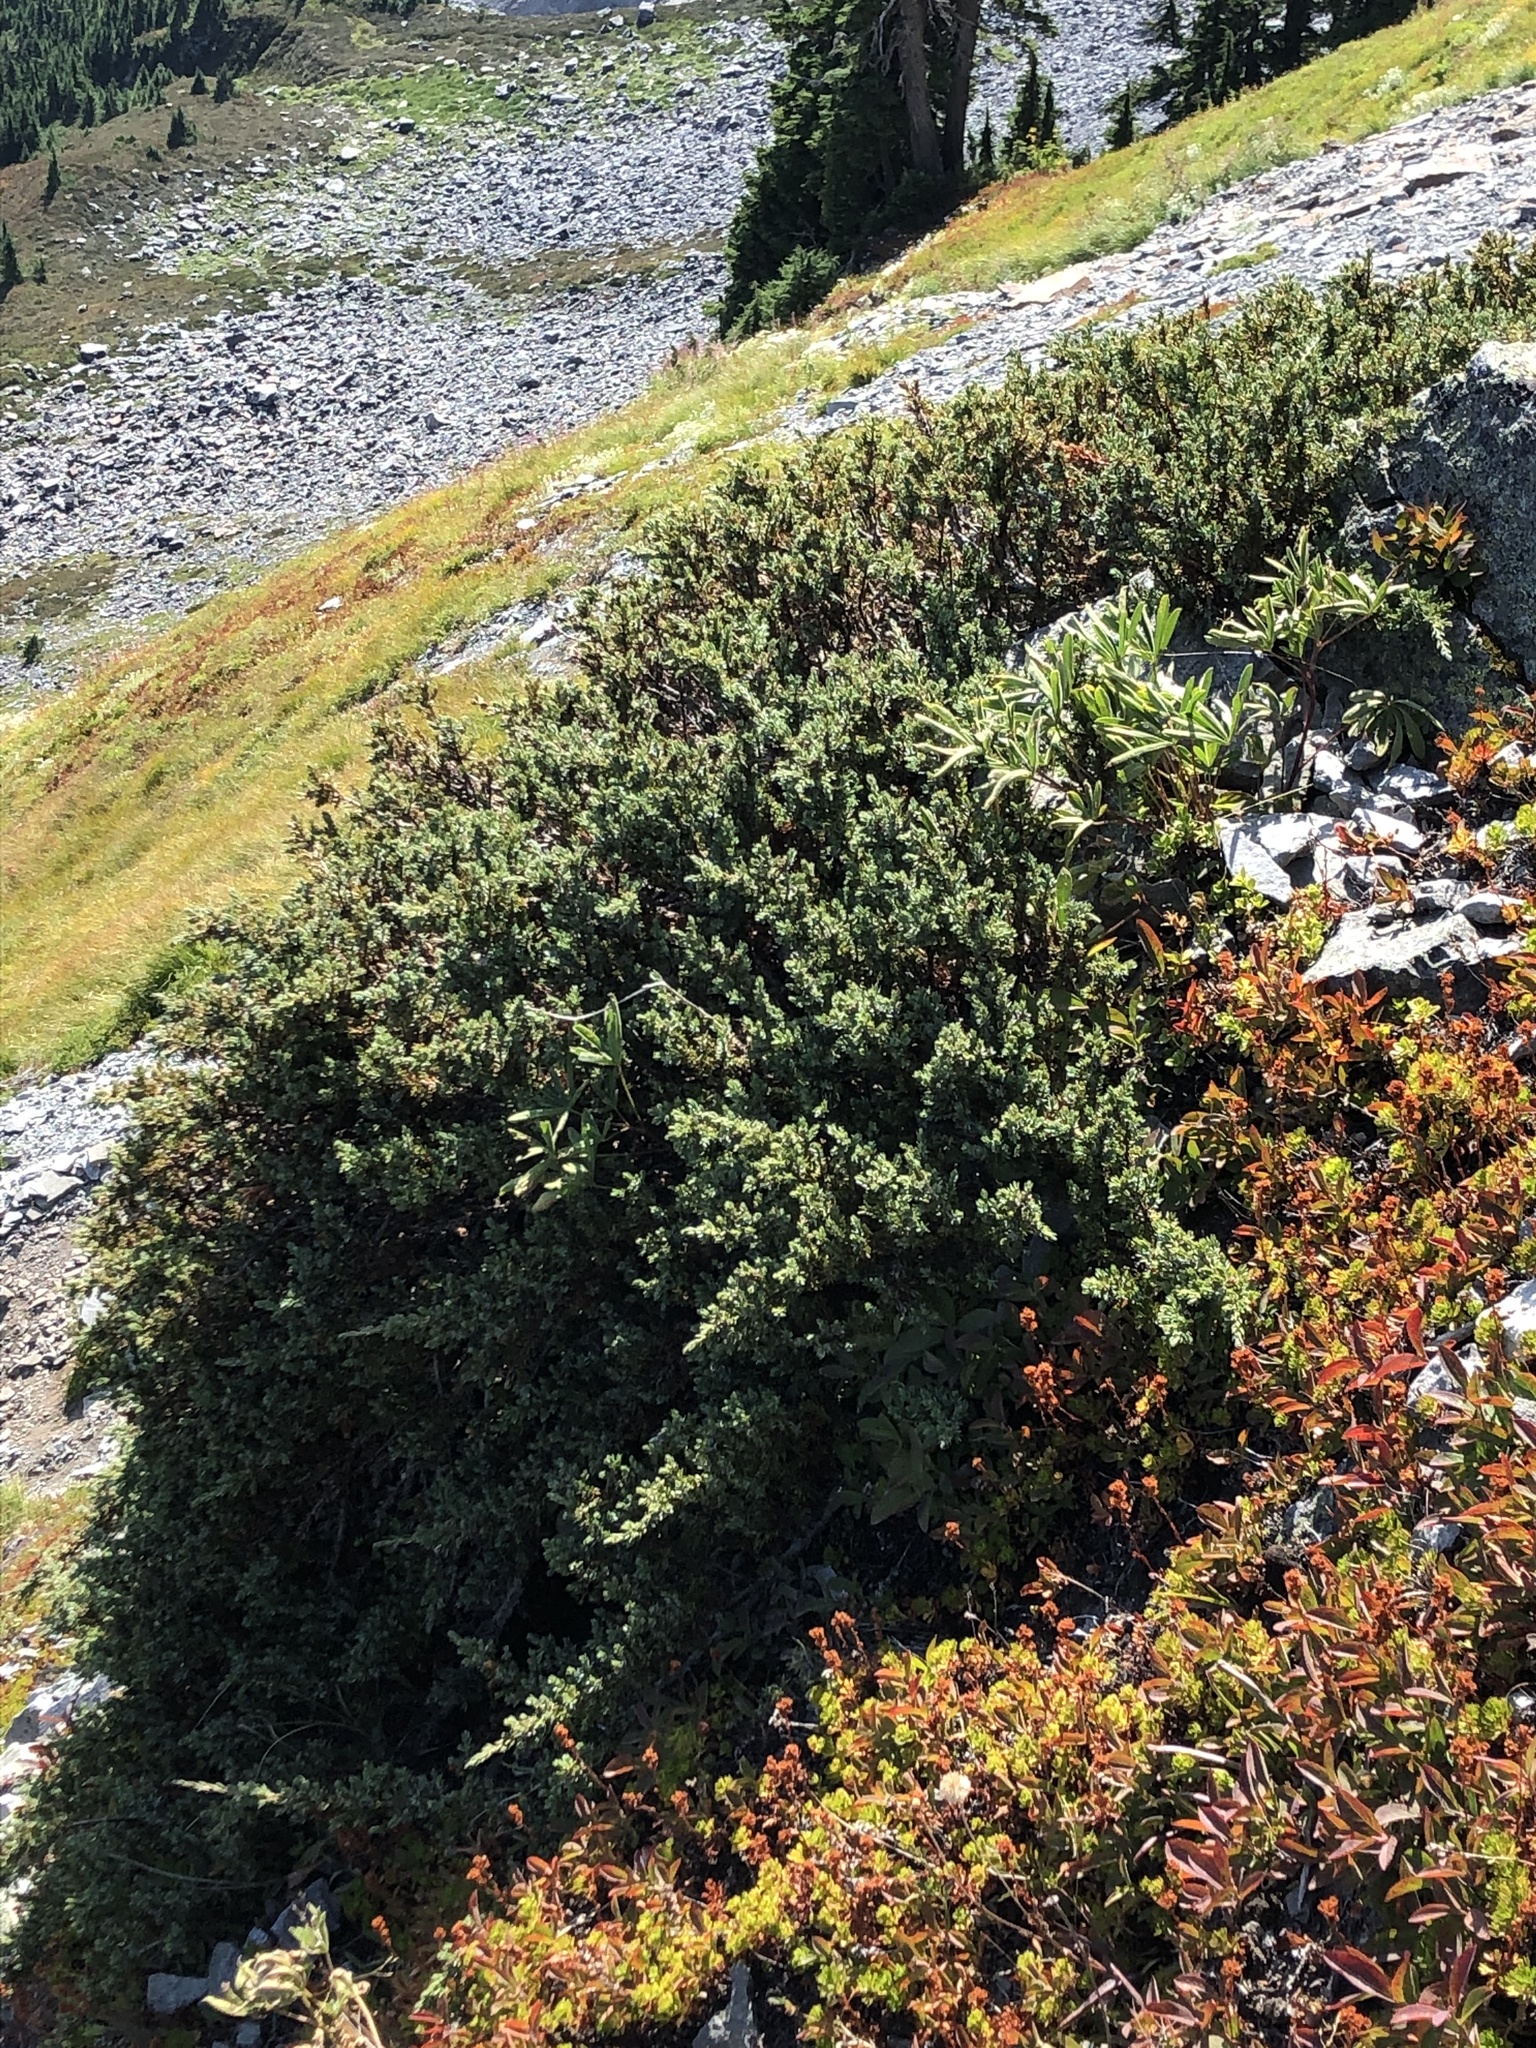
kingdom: Plantae
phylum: Tracheophyta
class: Pinopsida
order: Pinales
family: Cupressaceae
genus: Juniperus
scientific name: Juniperus communis
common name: Common juniper
